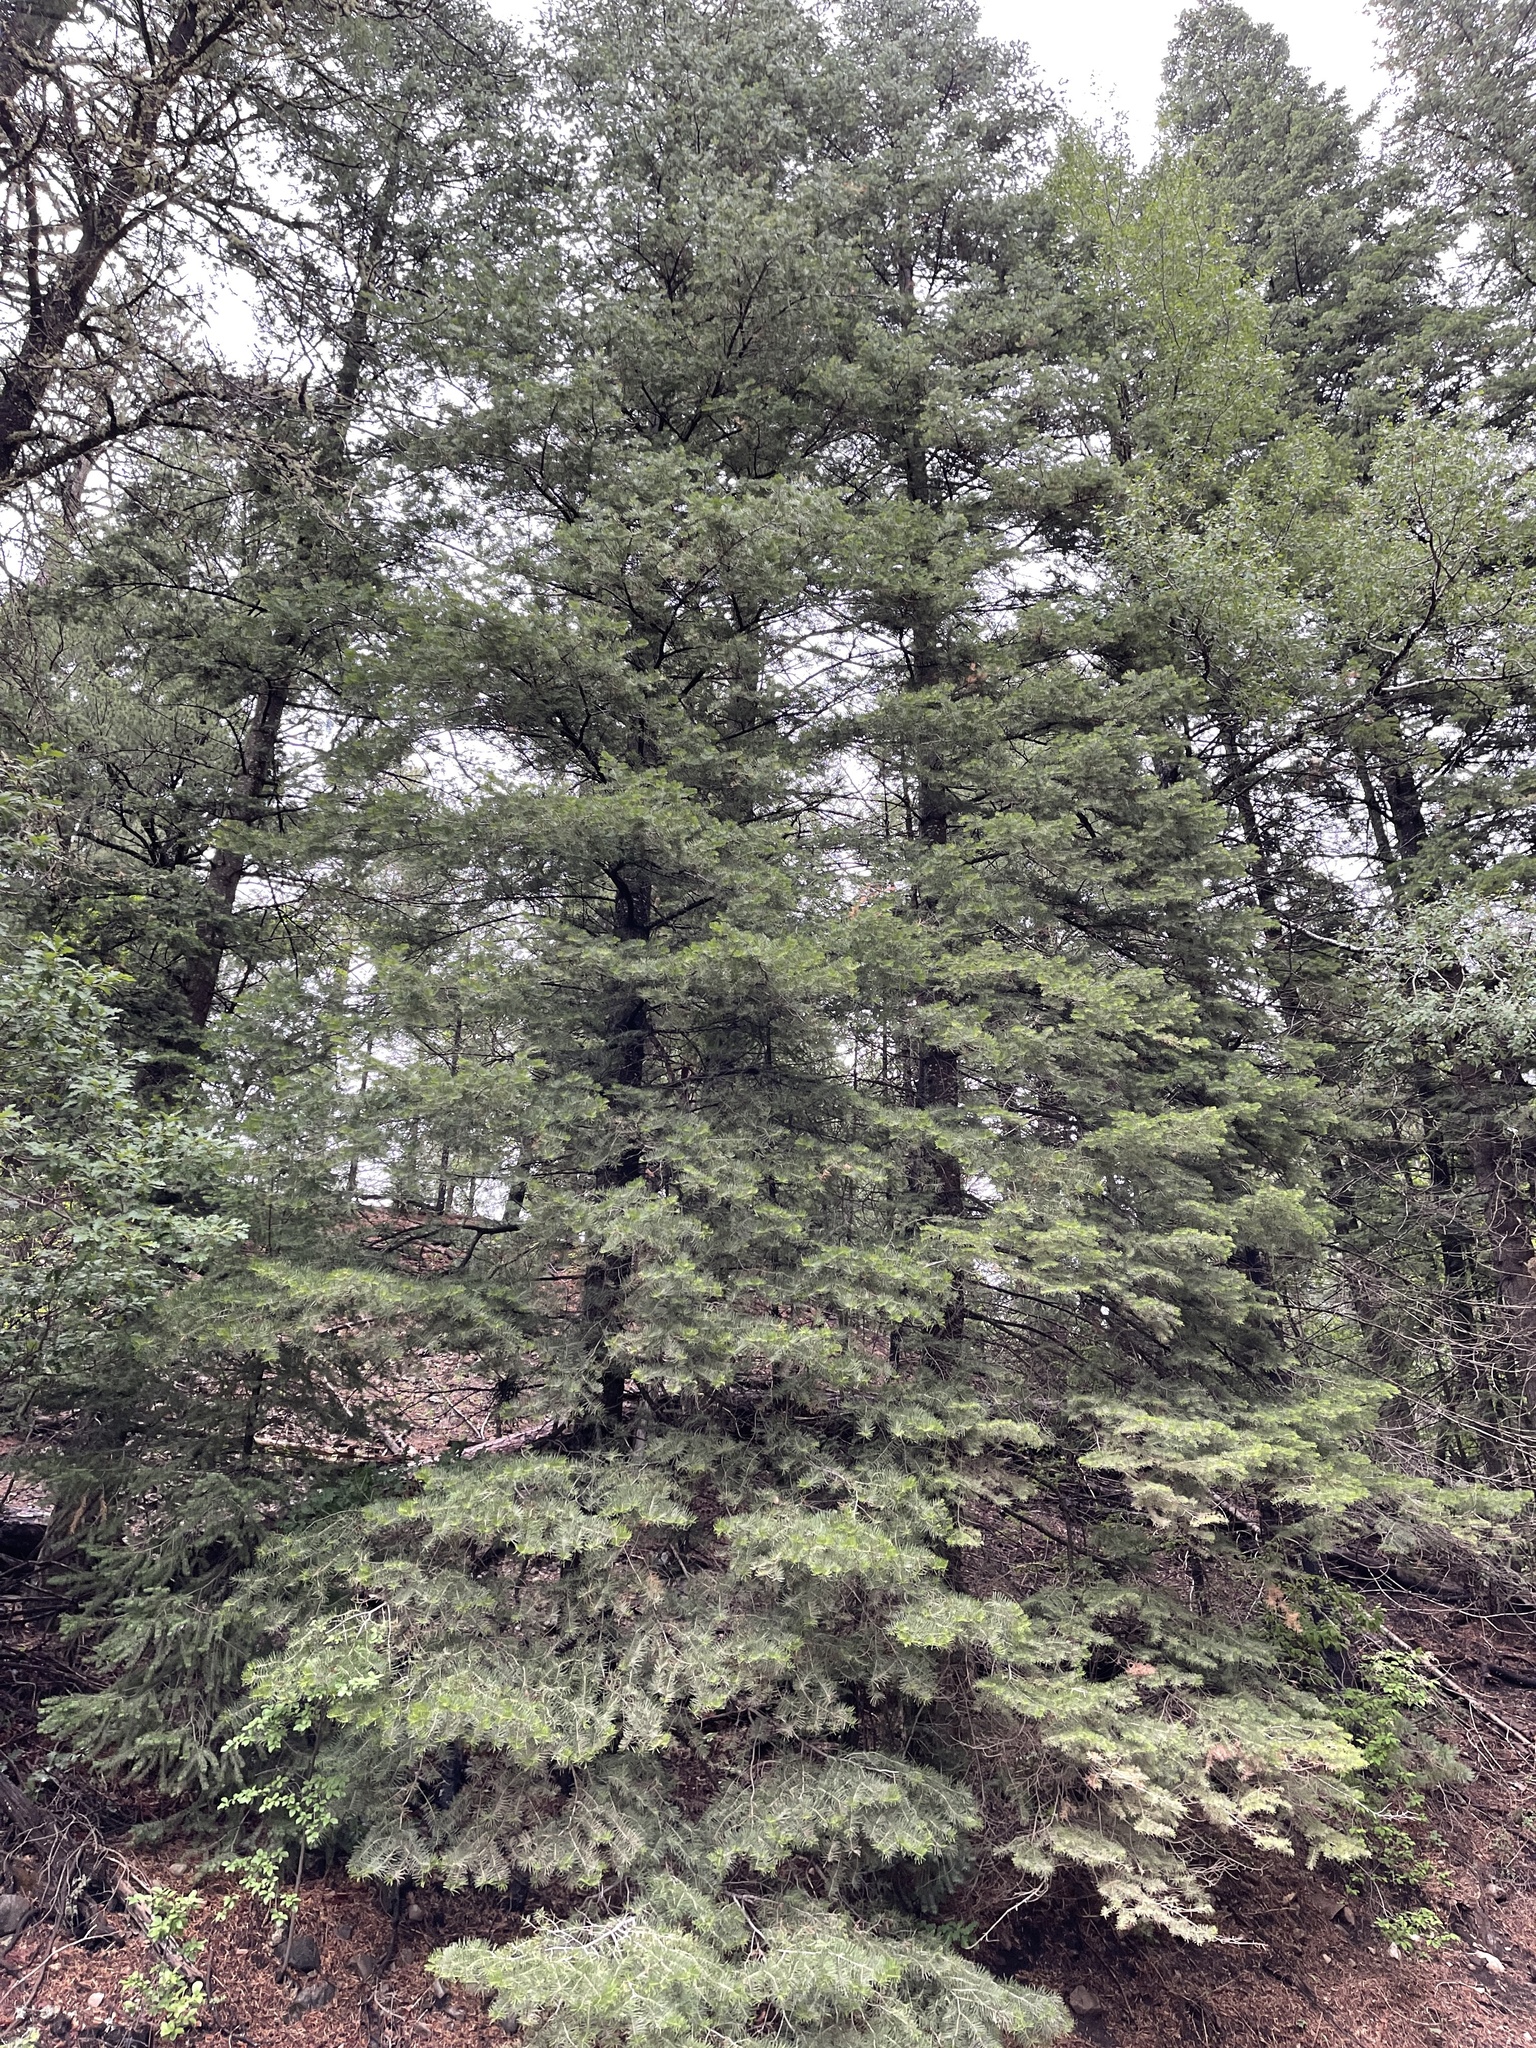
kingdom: Plantae
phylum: Tracheophyta
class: Pinopsida
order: Pinales
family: Pinaceae
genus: Abies
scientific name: Abies concolor
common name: Colorado fir
